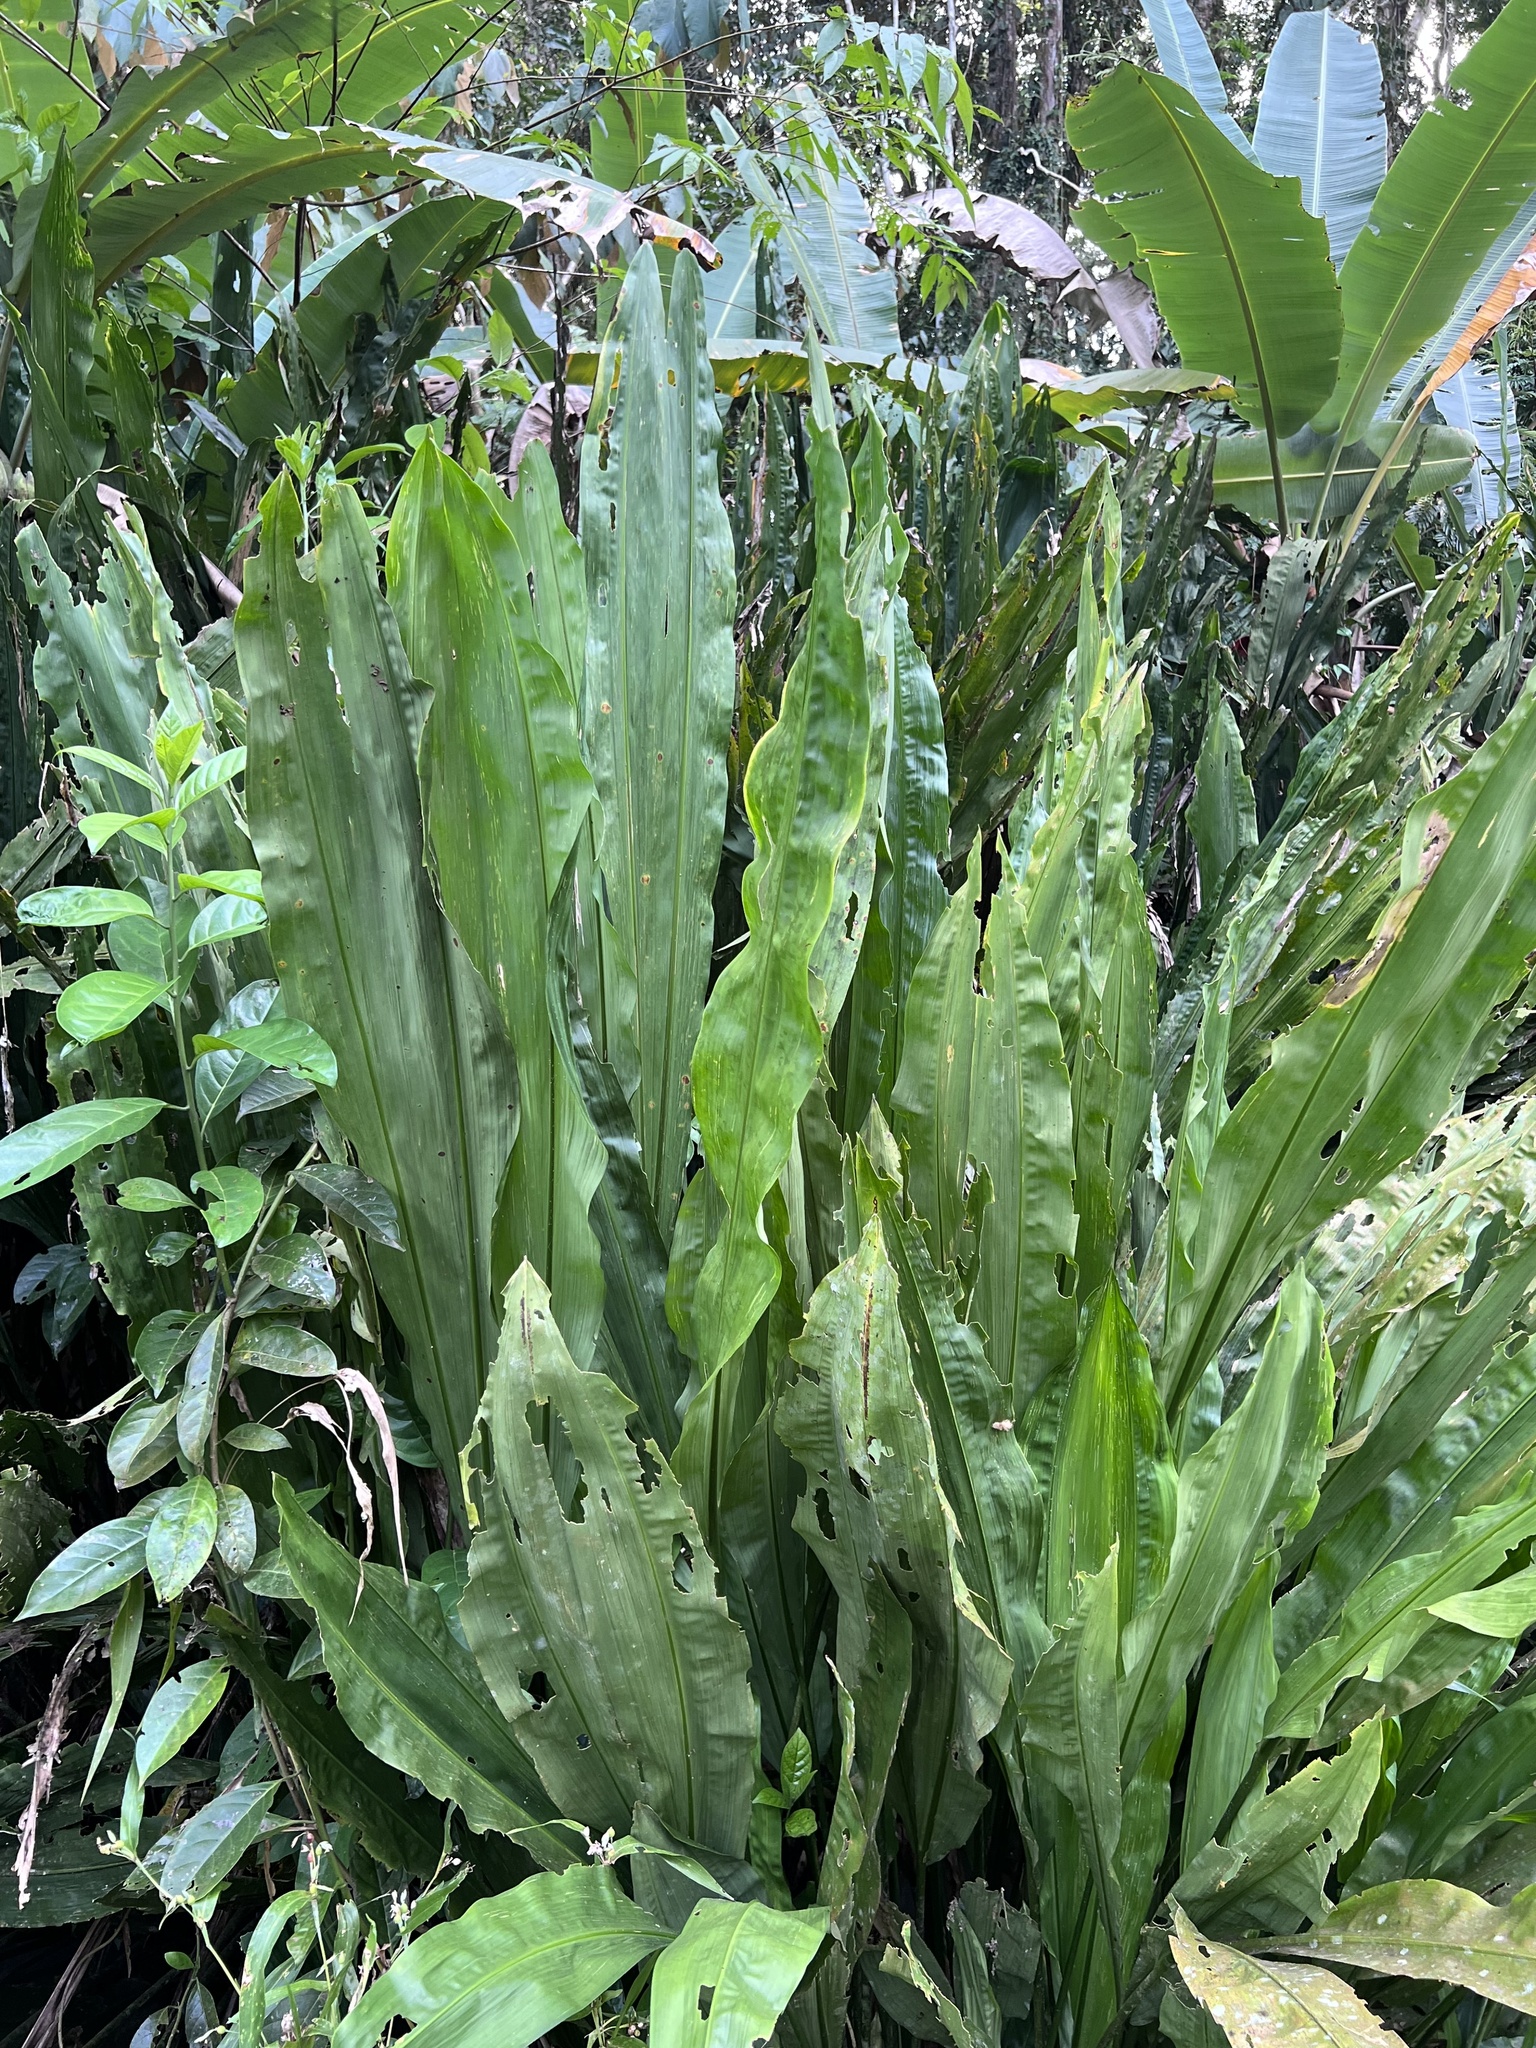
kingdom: Plantae
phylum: Tracheophyta
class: Liliopsida
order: Pandanales
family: Cyclanthaceae
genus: Cyclanthus
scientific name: Cyclanthus bipartitus
